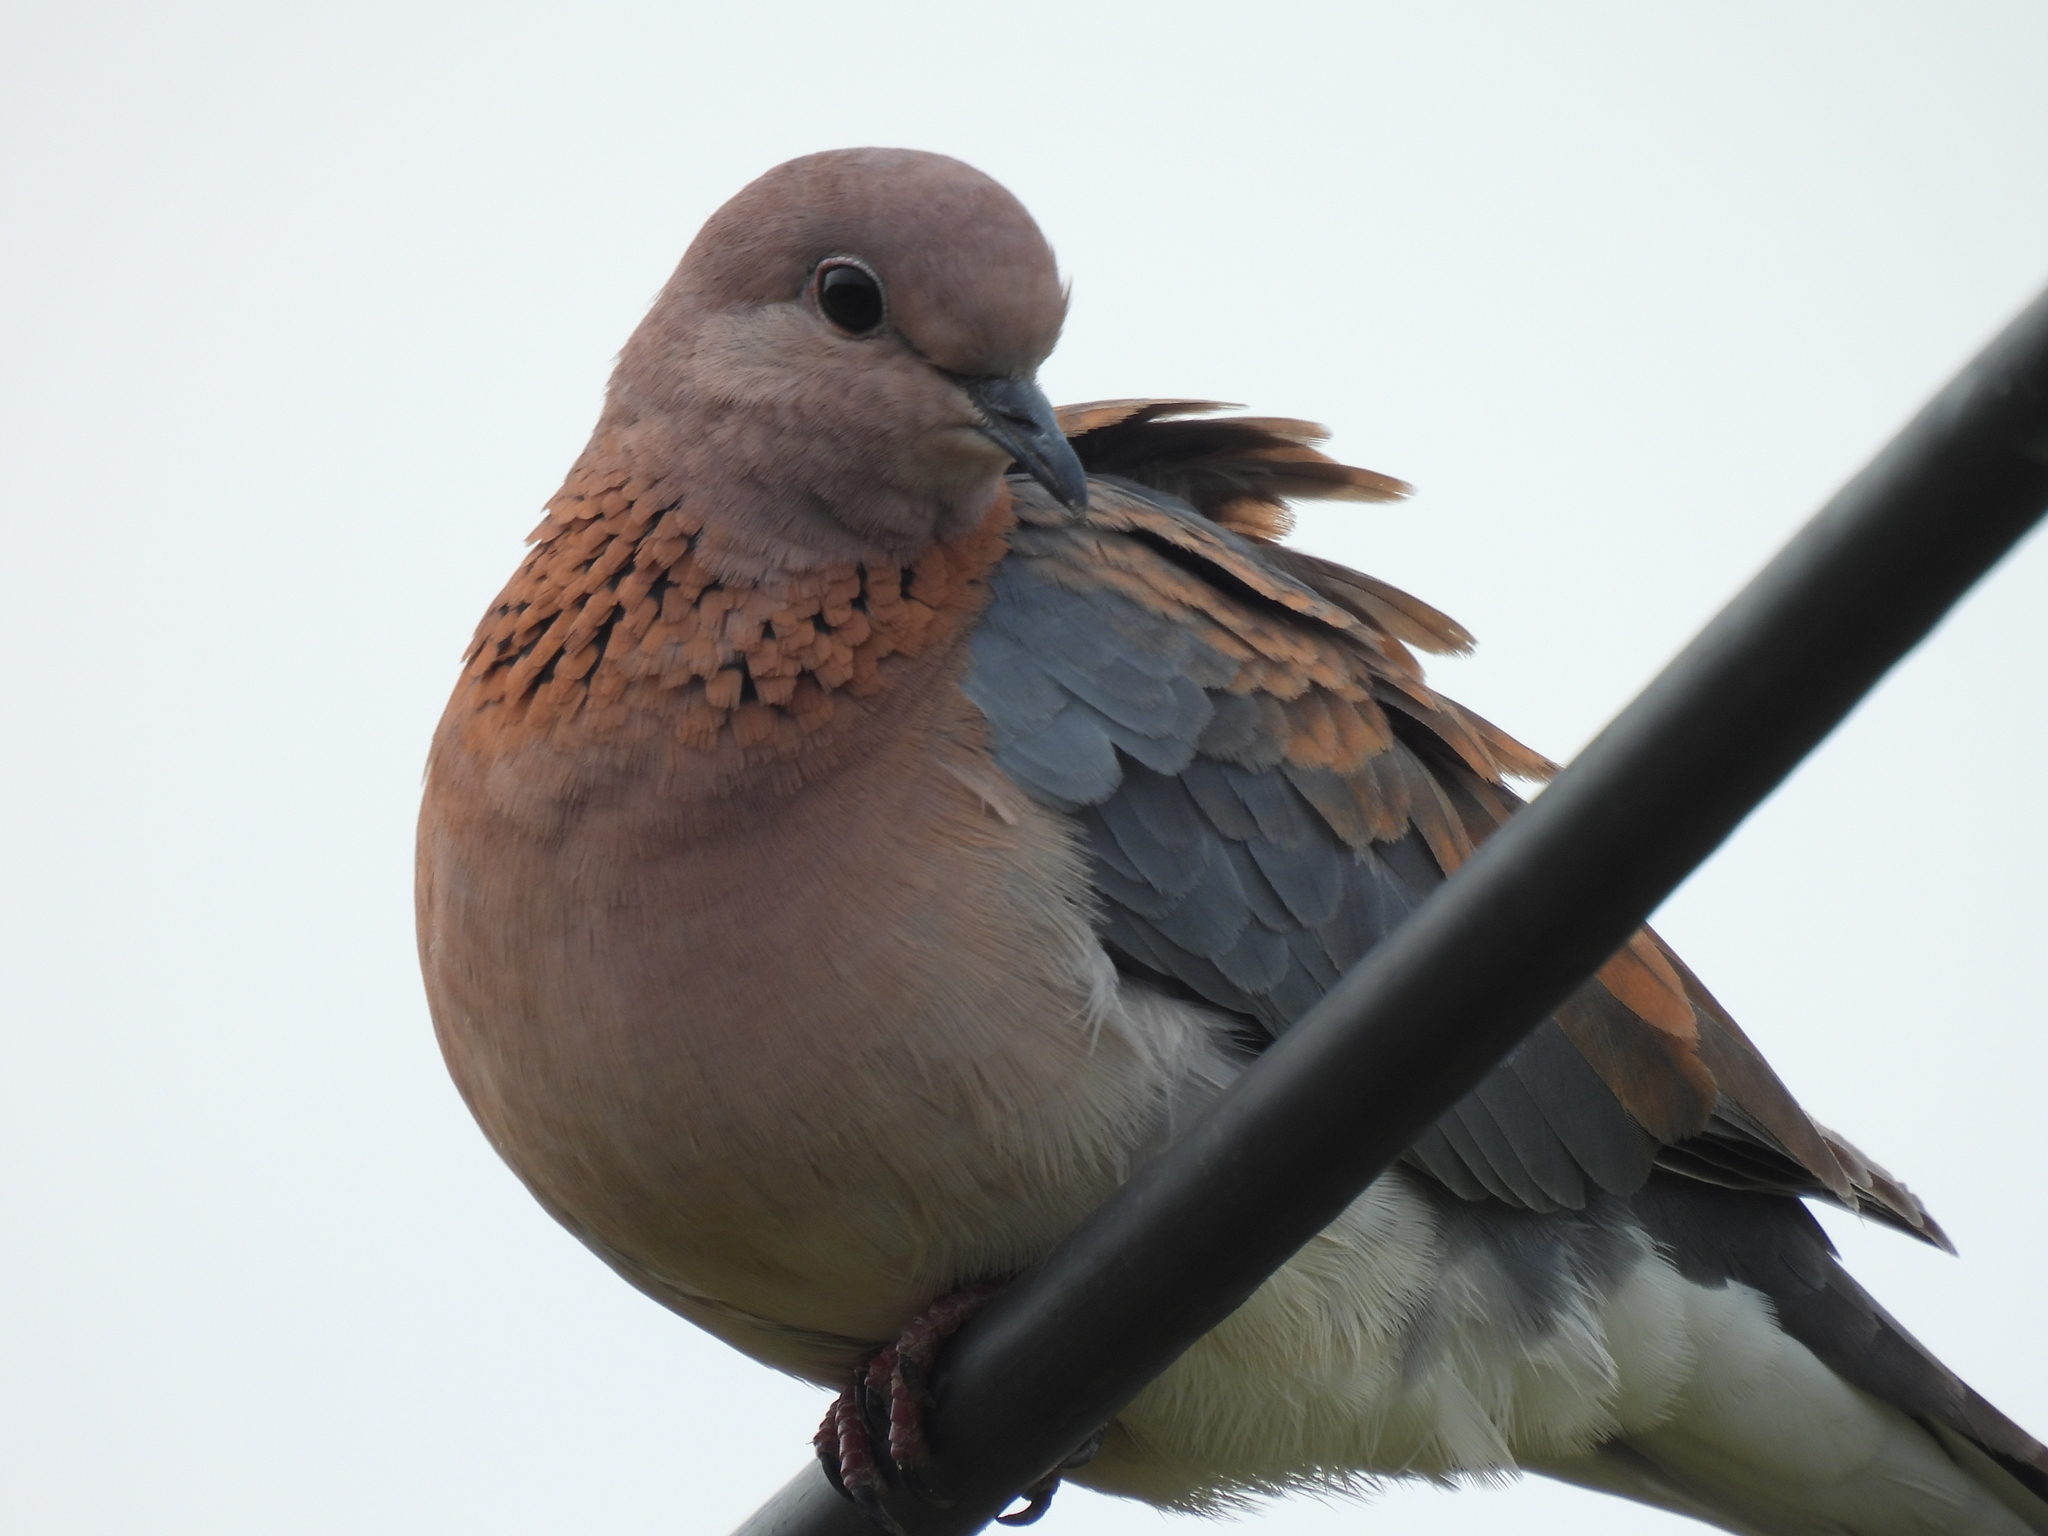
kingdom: Animalia
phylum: Chordata
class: Aves
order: Columbiformes
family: Columbidae
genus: Spilopelia
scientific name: Spilopelia senegalensis
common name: Laughing dove
